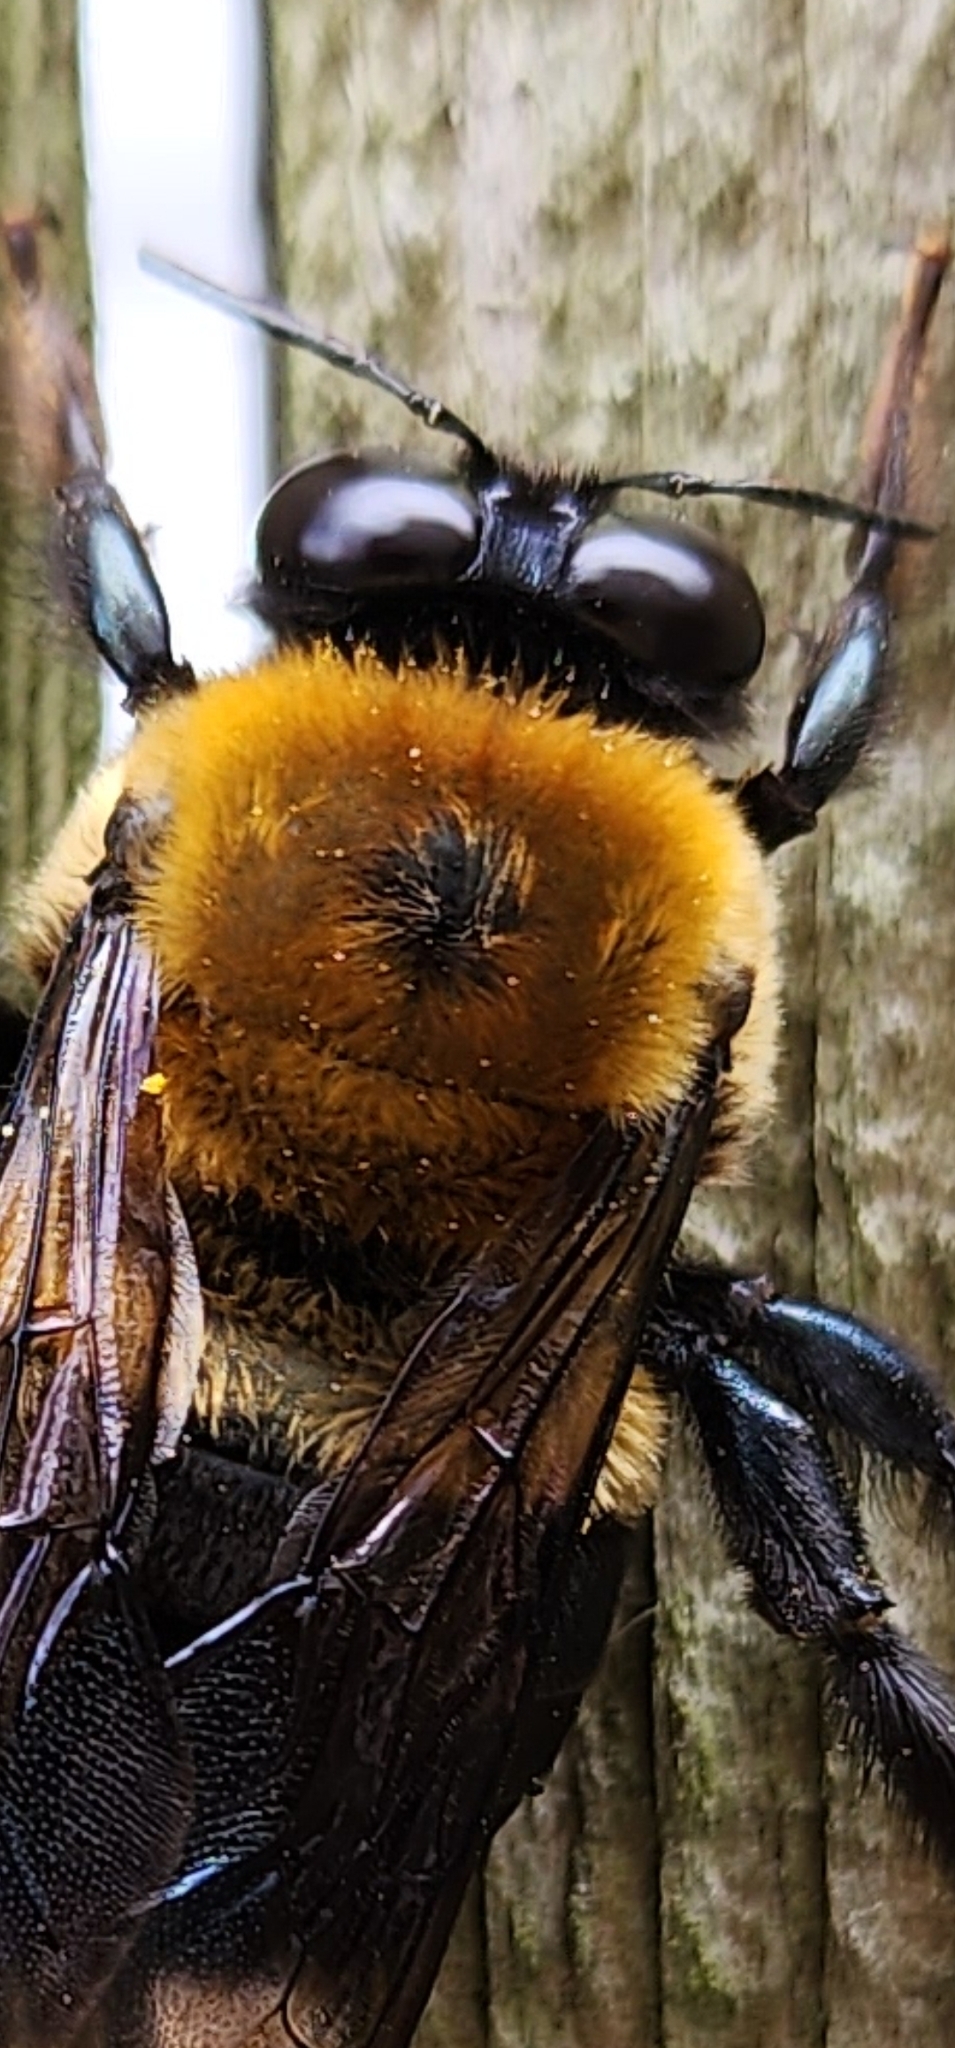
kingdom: Animalia
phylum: Arthropoda
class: Insecta
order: Hymenoptera
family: Apidae
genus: Xylocopa
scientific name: Xylocopa virginica
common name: Carpenter bee
